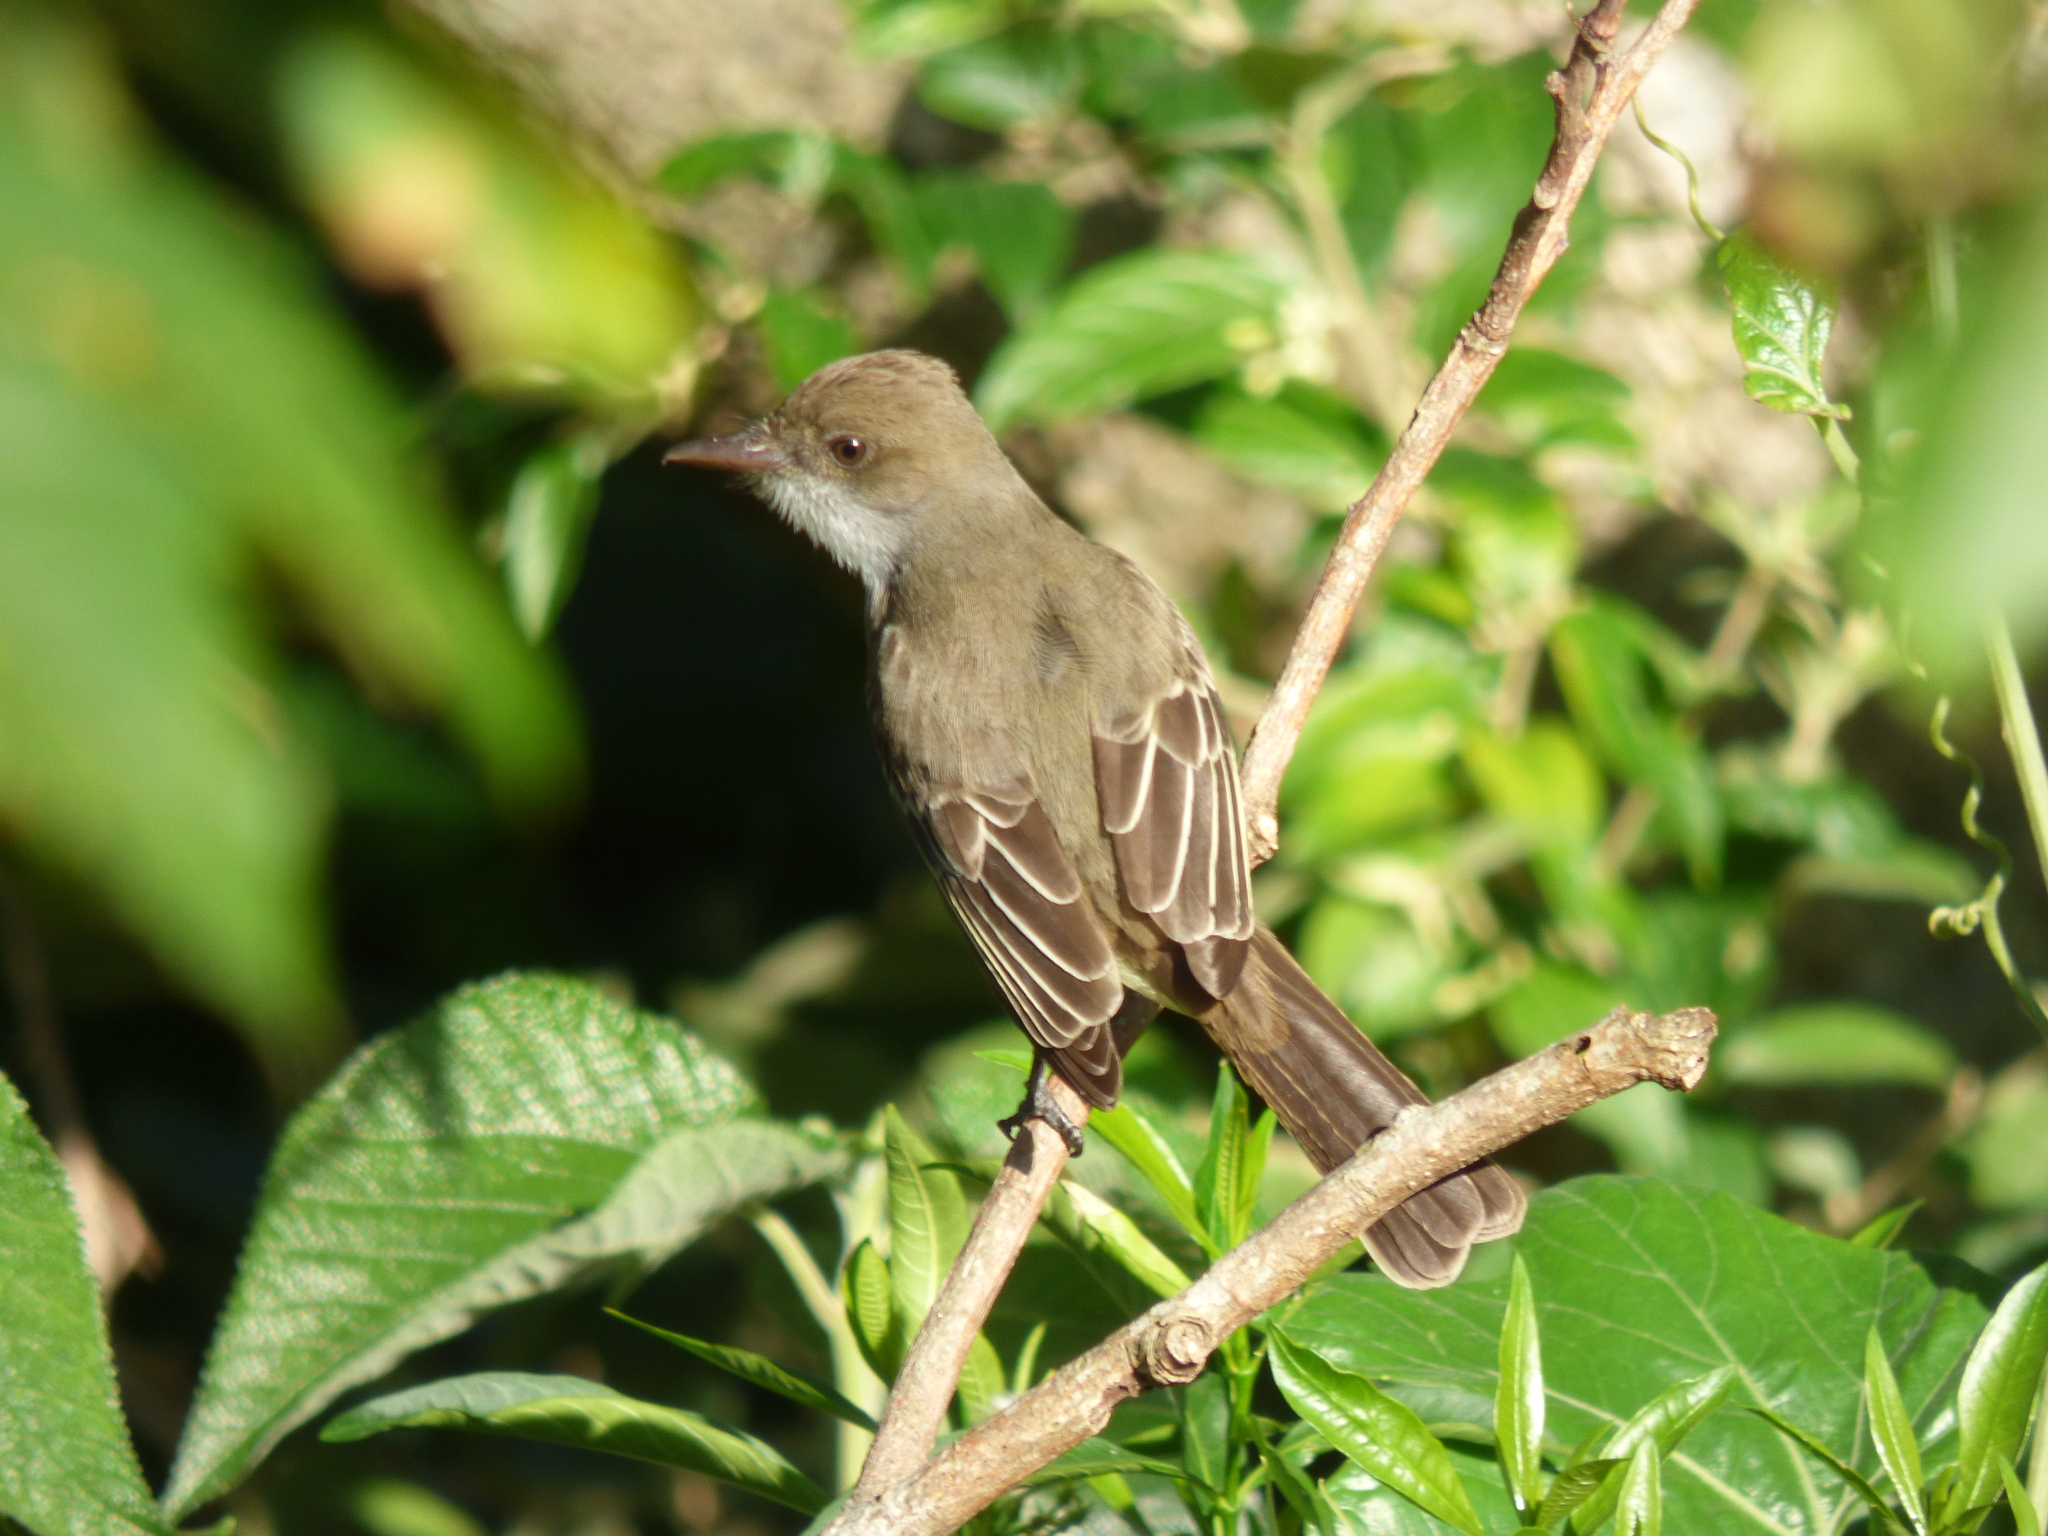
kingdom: Animalia
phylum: Chordata
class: Aves
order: Passeriformes
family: Tyrannidae
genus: Myiarchus
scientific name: Myiarchus swainsoni
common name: Swainson's flycatcher
